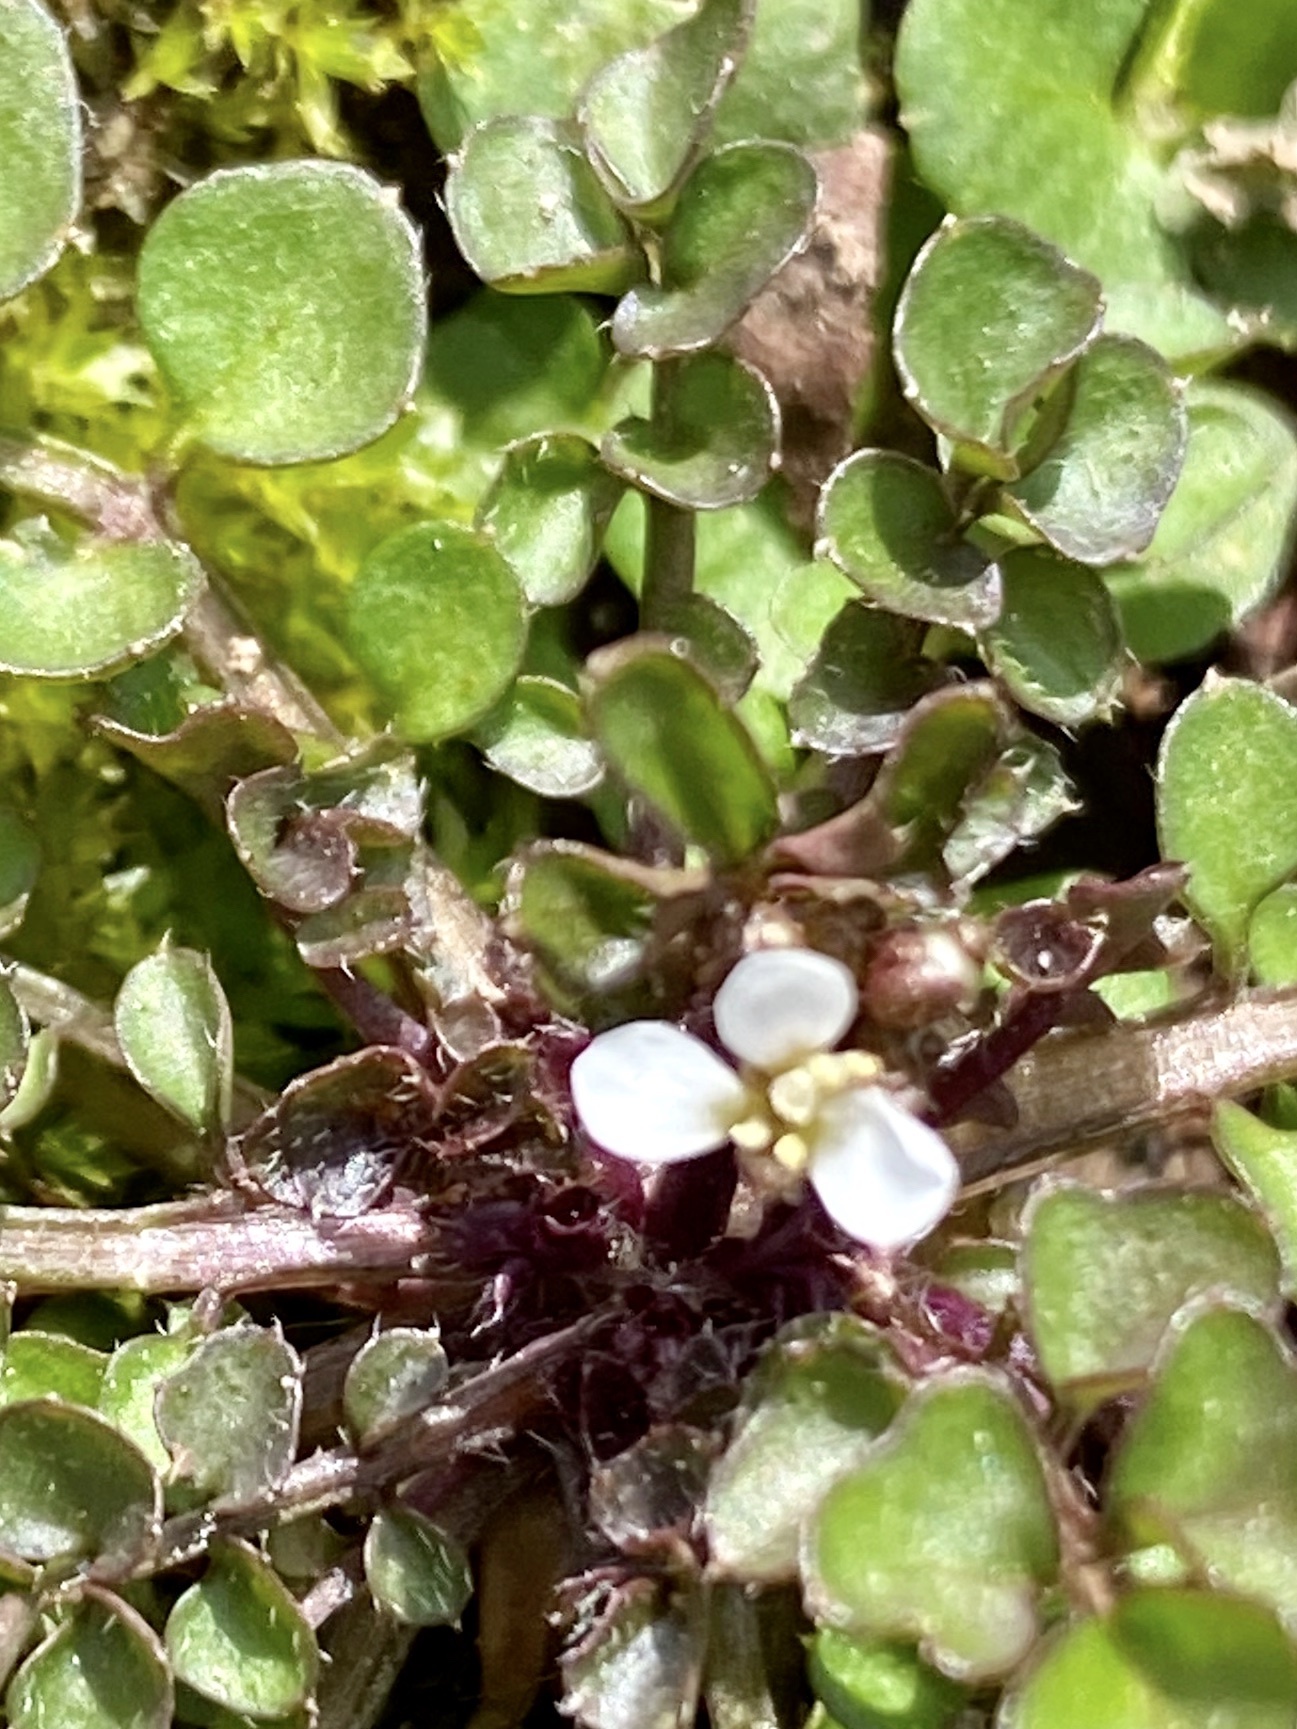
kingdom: Plantae
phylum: Tracheophyta
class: Magnoliopsida
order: Brassicales
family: Brassicaceae
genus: Cardamine
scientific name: Cardamine hirsuta
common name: Hairy bittercress
